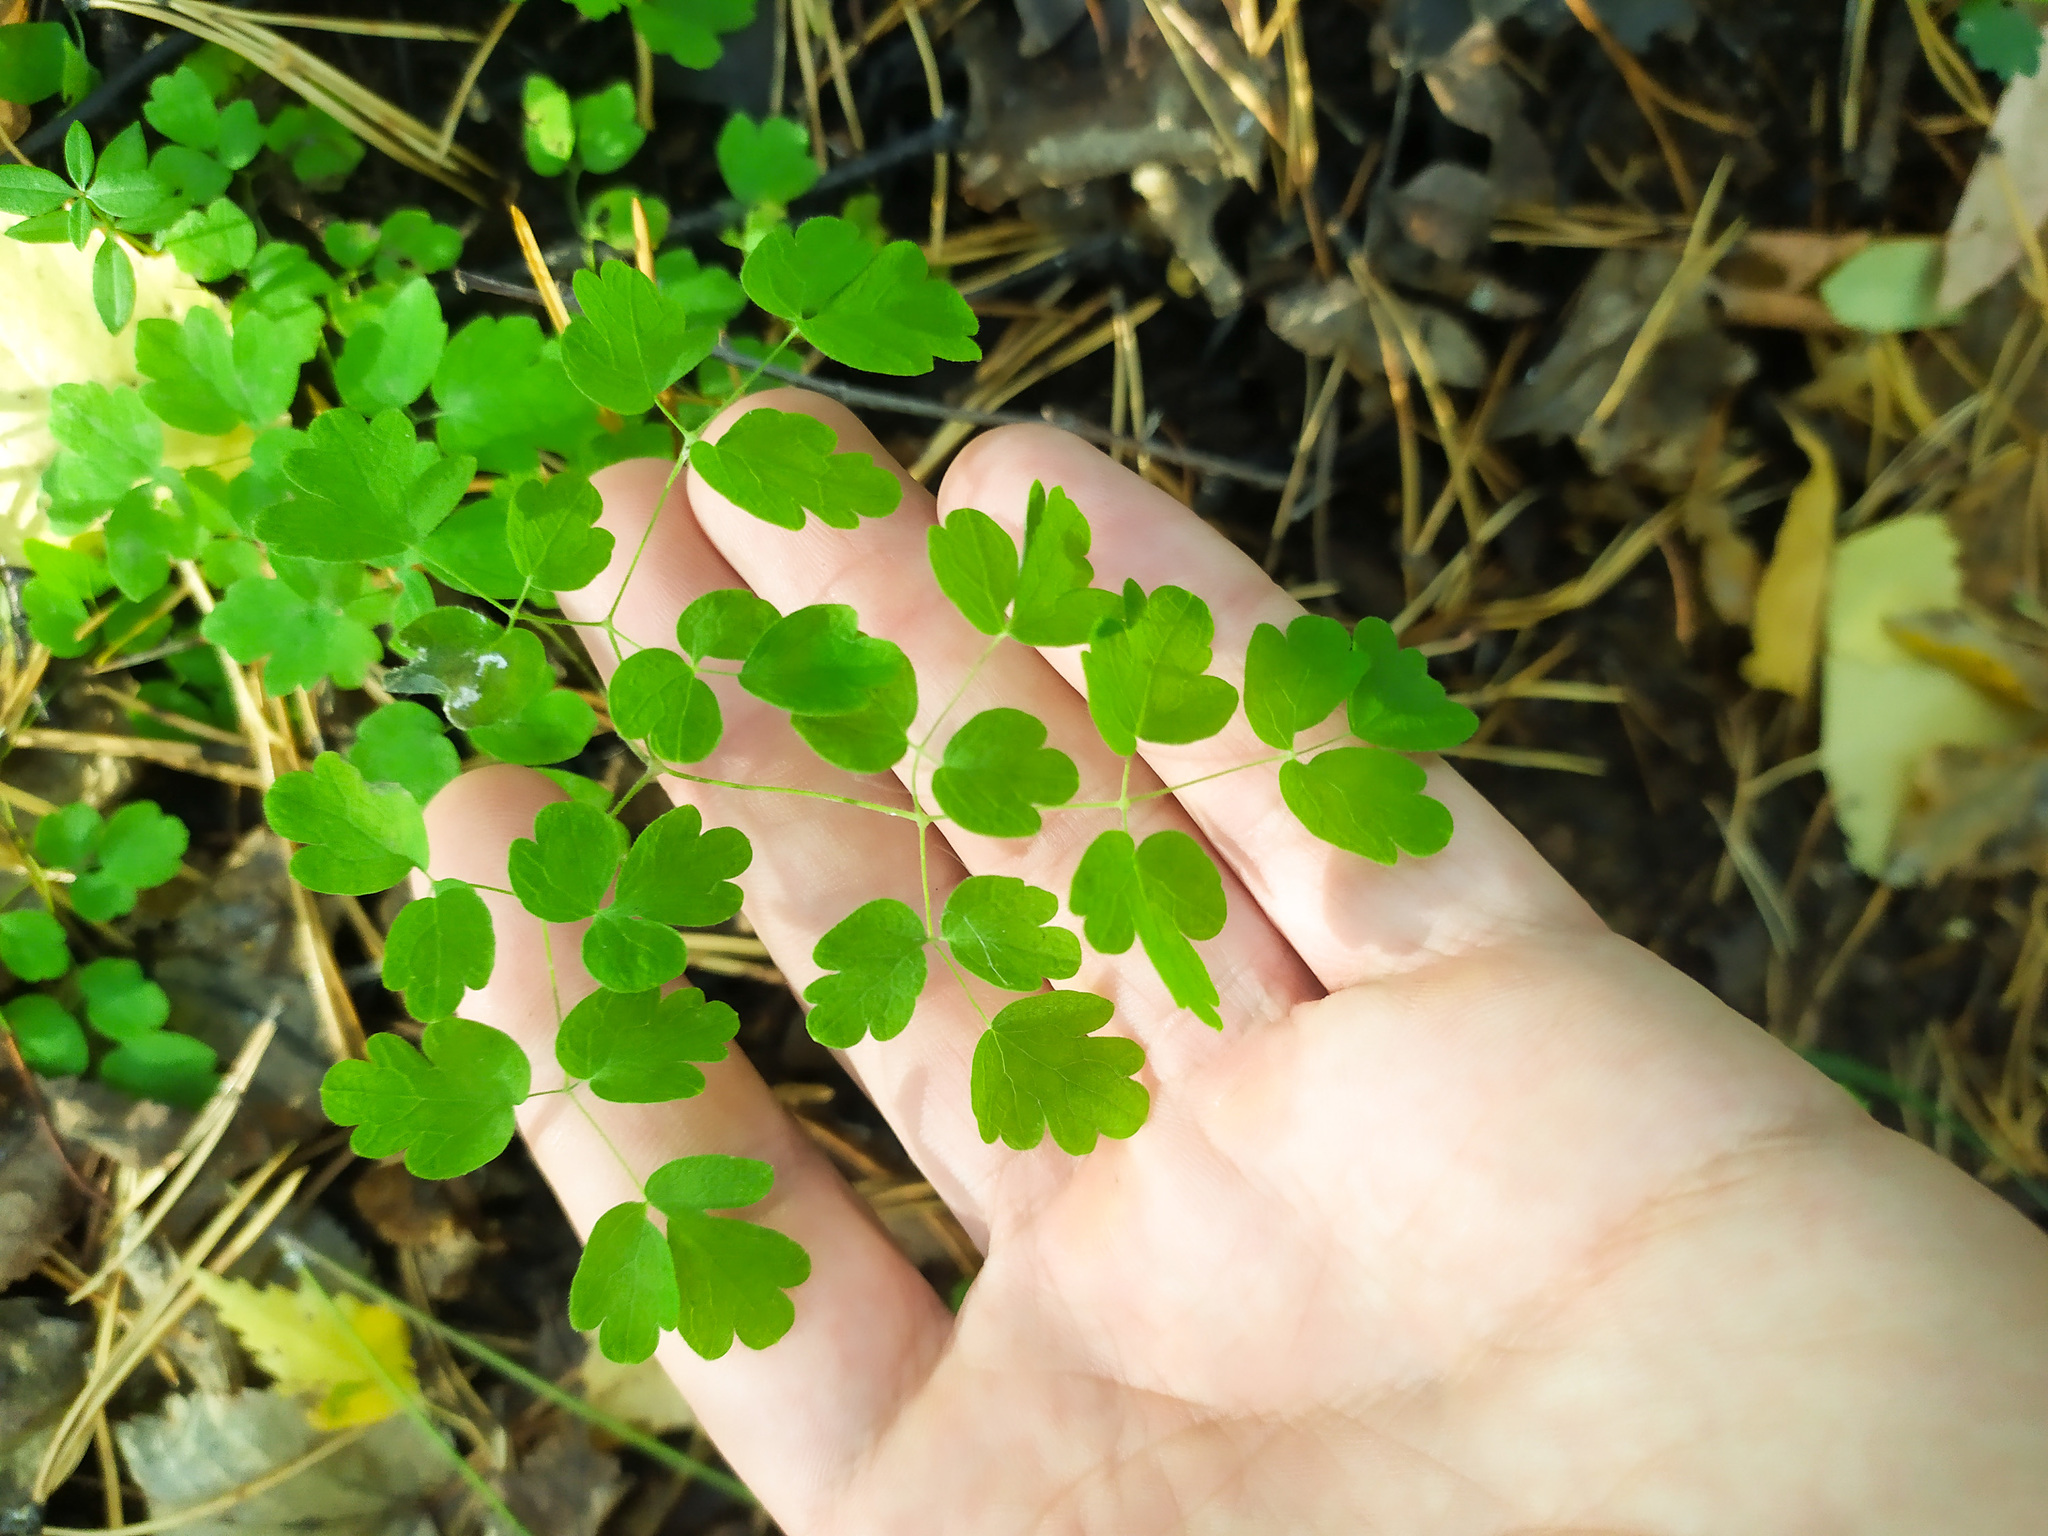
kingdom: Plantae
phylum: Tracheophyta
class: Magnoliopsida
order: Ranunculales
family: Ranunculaceae
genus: Thalictrum
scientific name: Thalictrum minus
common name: Lesser meadow-rue
